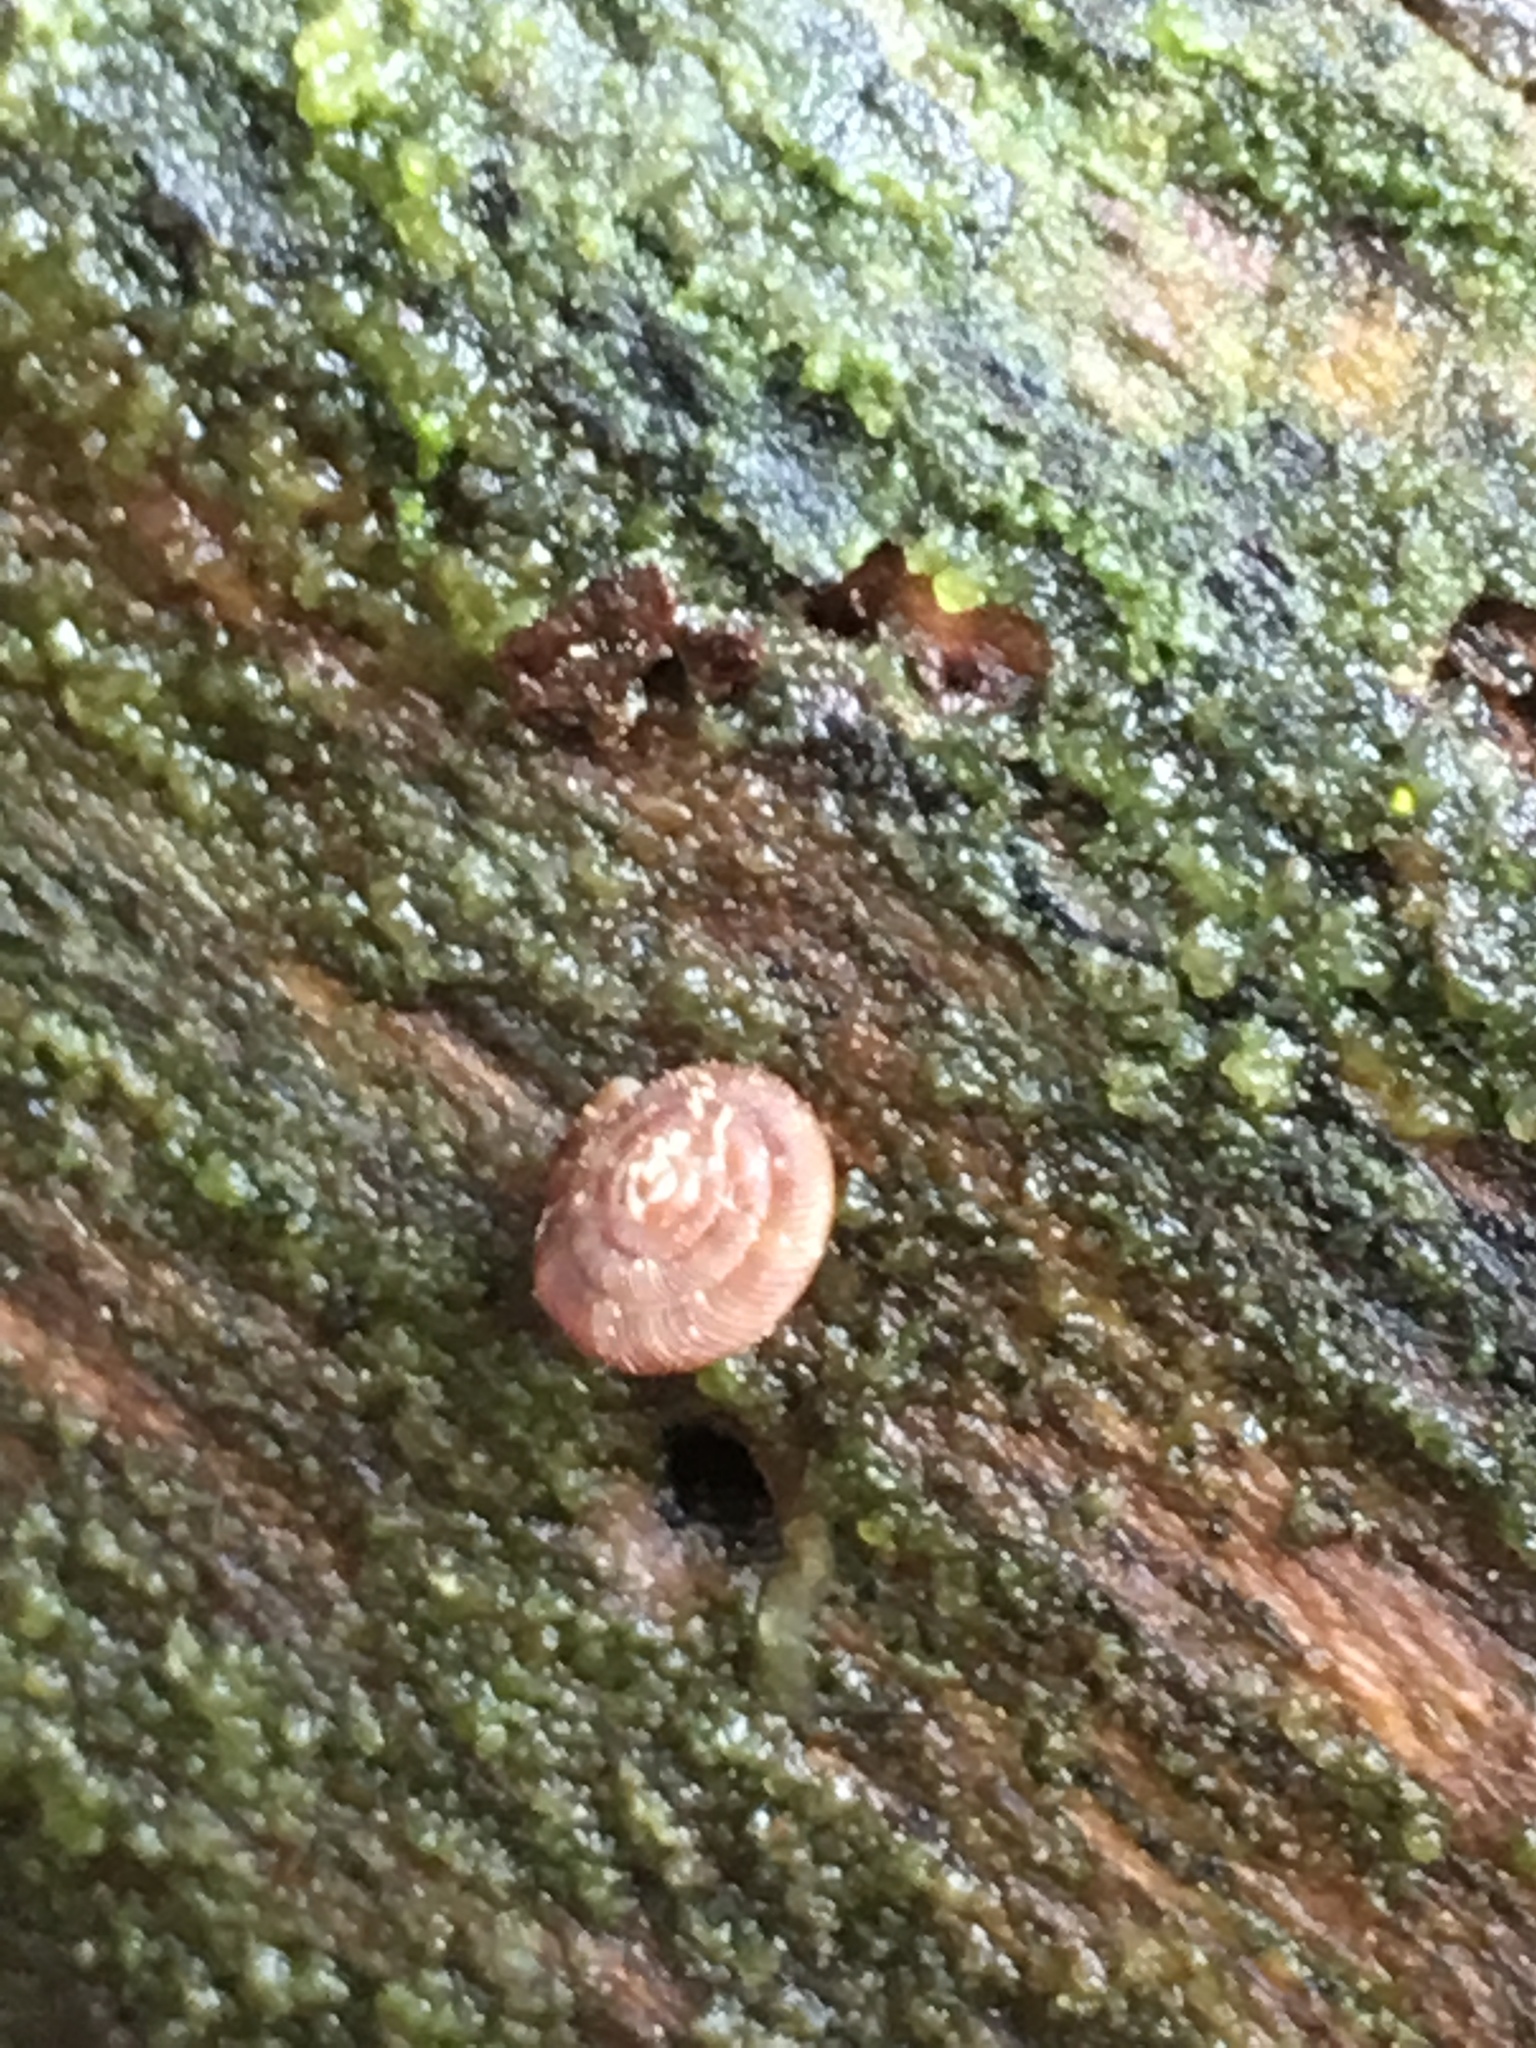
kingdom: Animalia
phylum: Mollusca
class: Gastropoda
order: Stylommatophora
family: Discidae
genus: Discus
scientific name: Discus rotundatus
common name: Rounded snail
